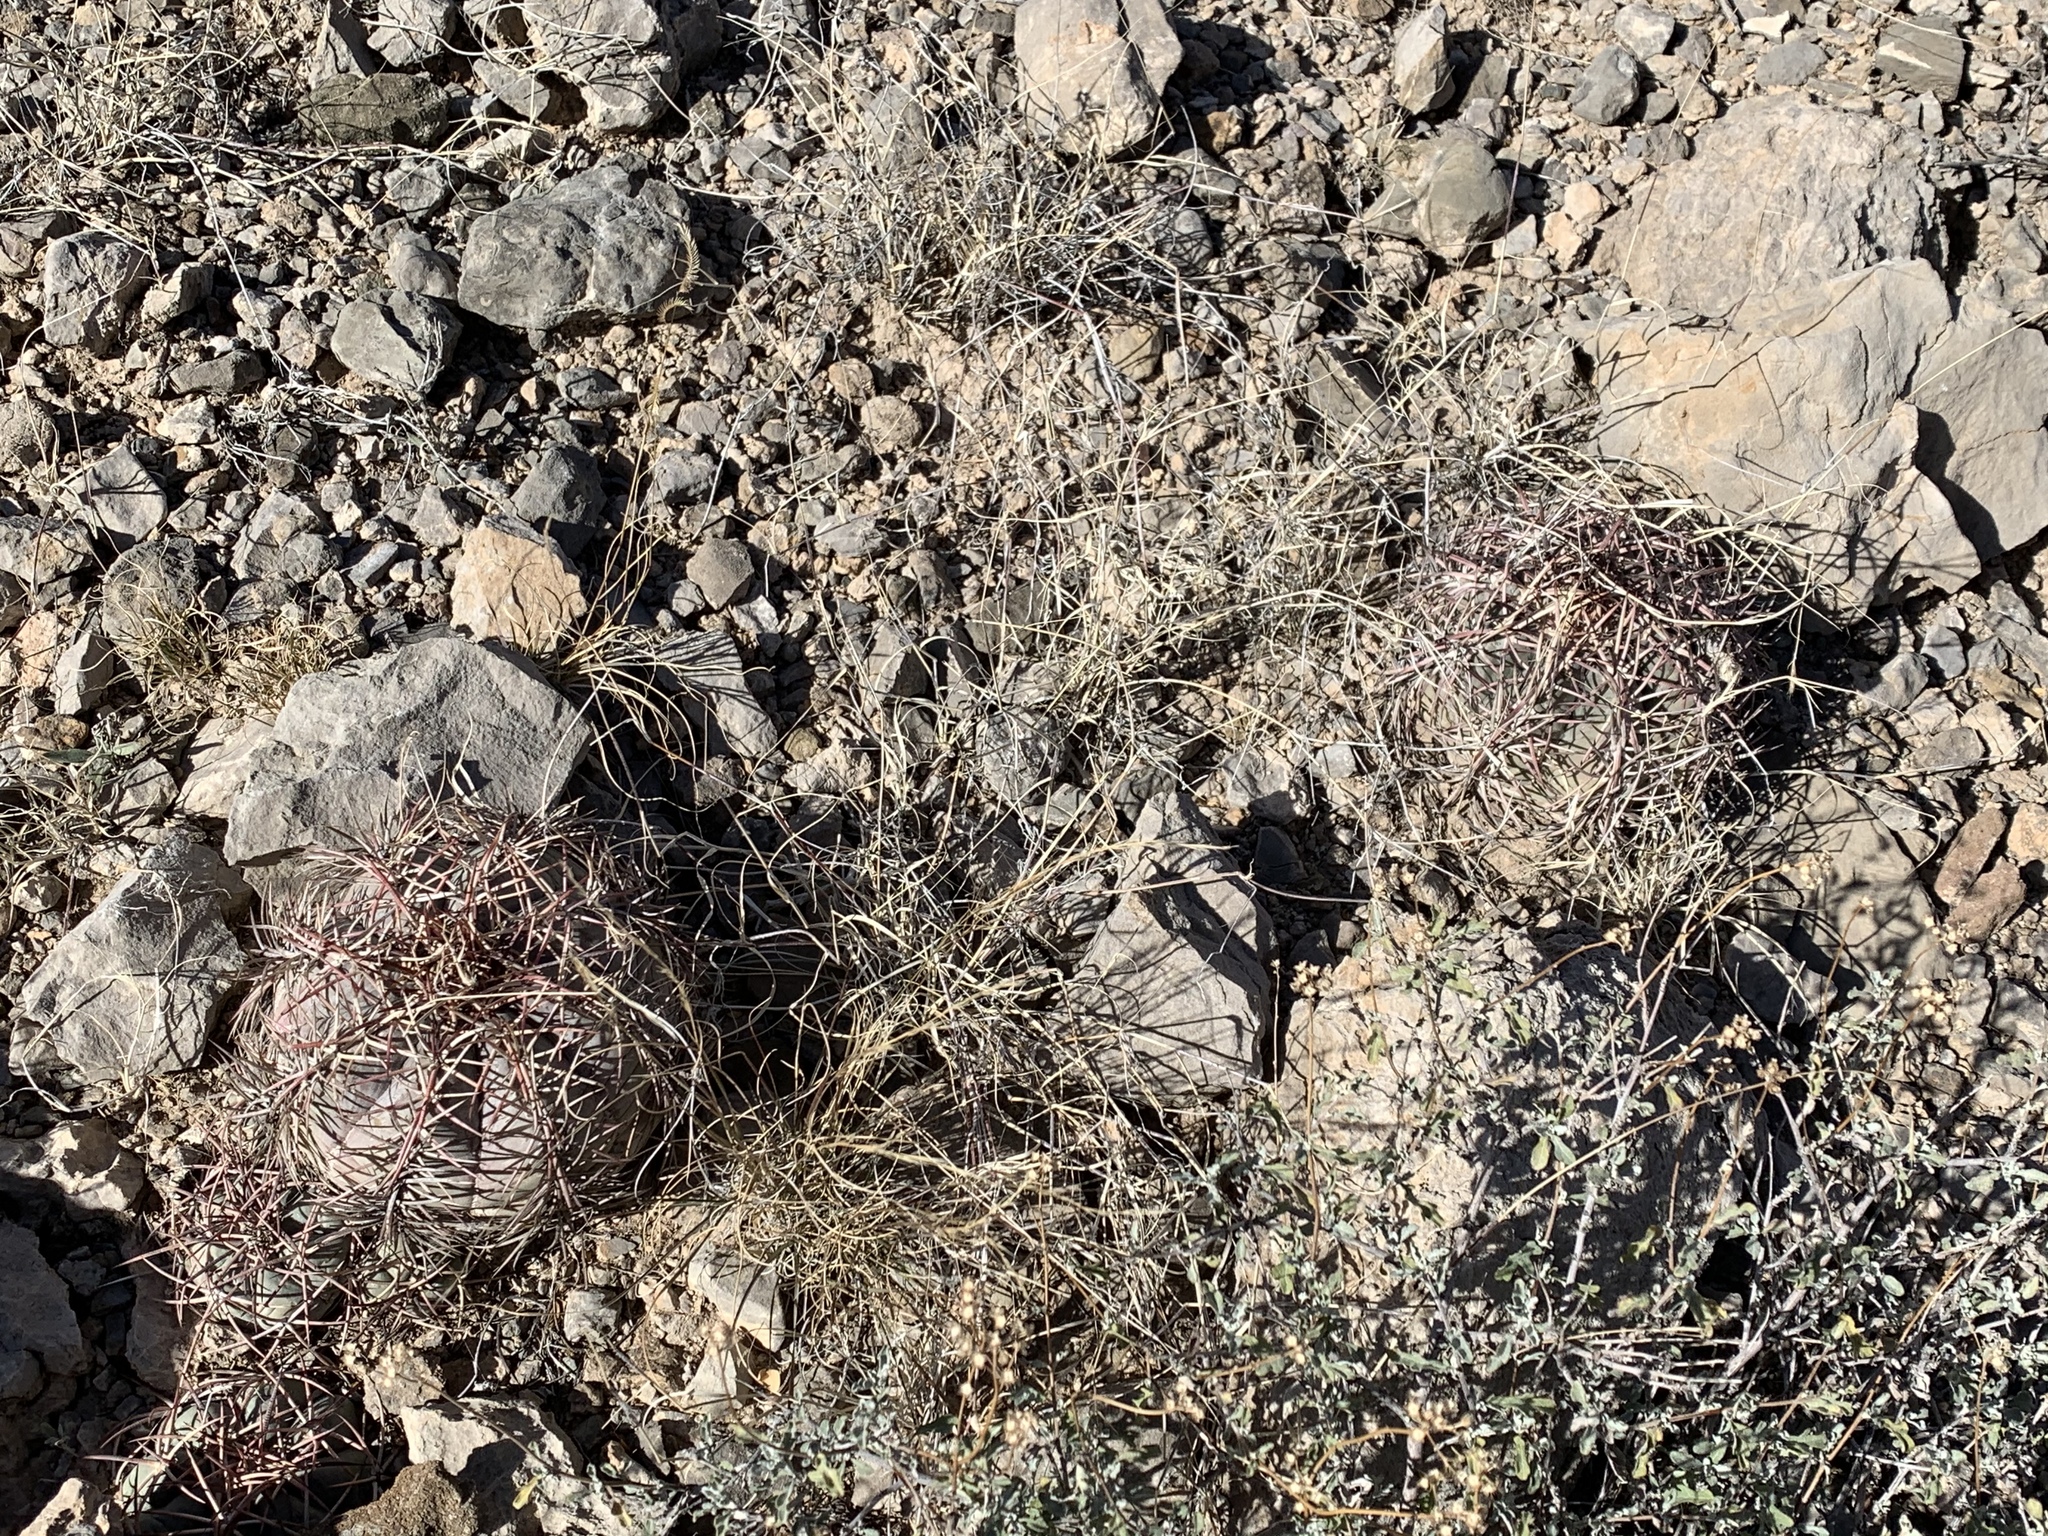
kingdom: Plantae
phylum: Tracheophyta
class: Magnoliopsida
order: Caryophyllales
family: Cactaceae
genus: Echinocactus
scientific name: Echinocactus horizonthalonius
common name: Devilshead
